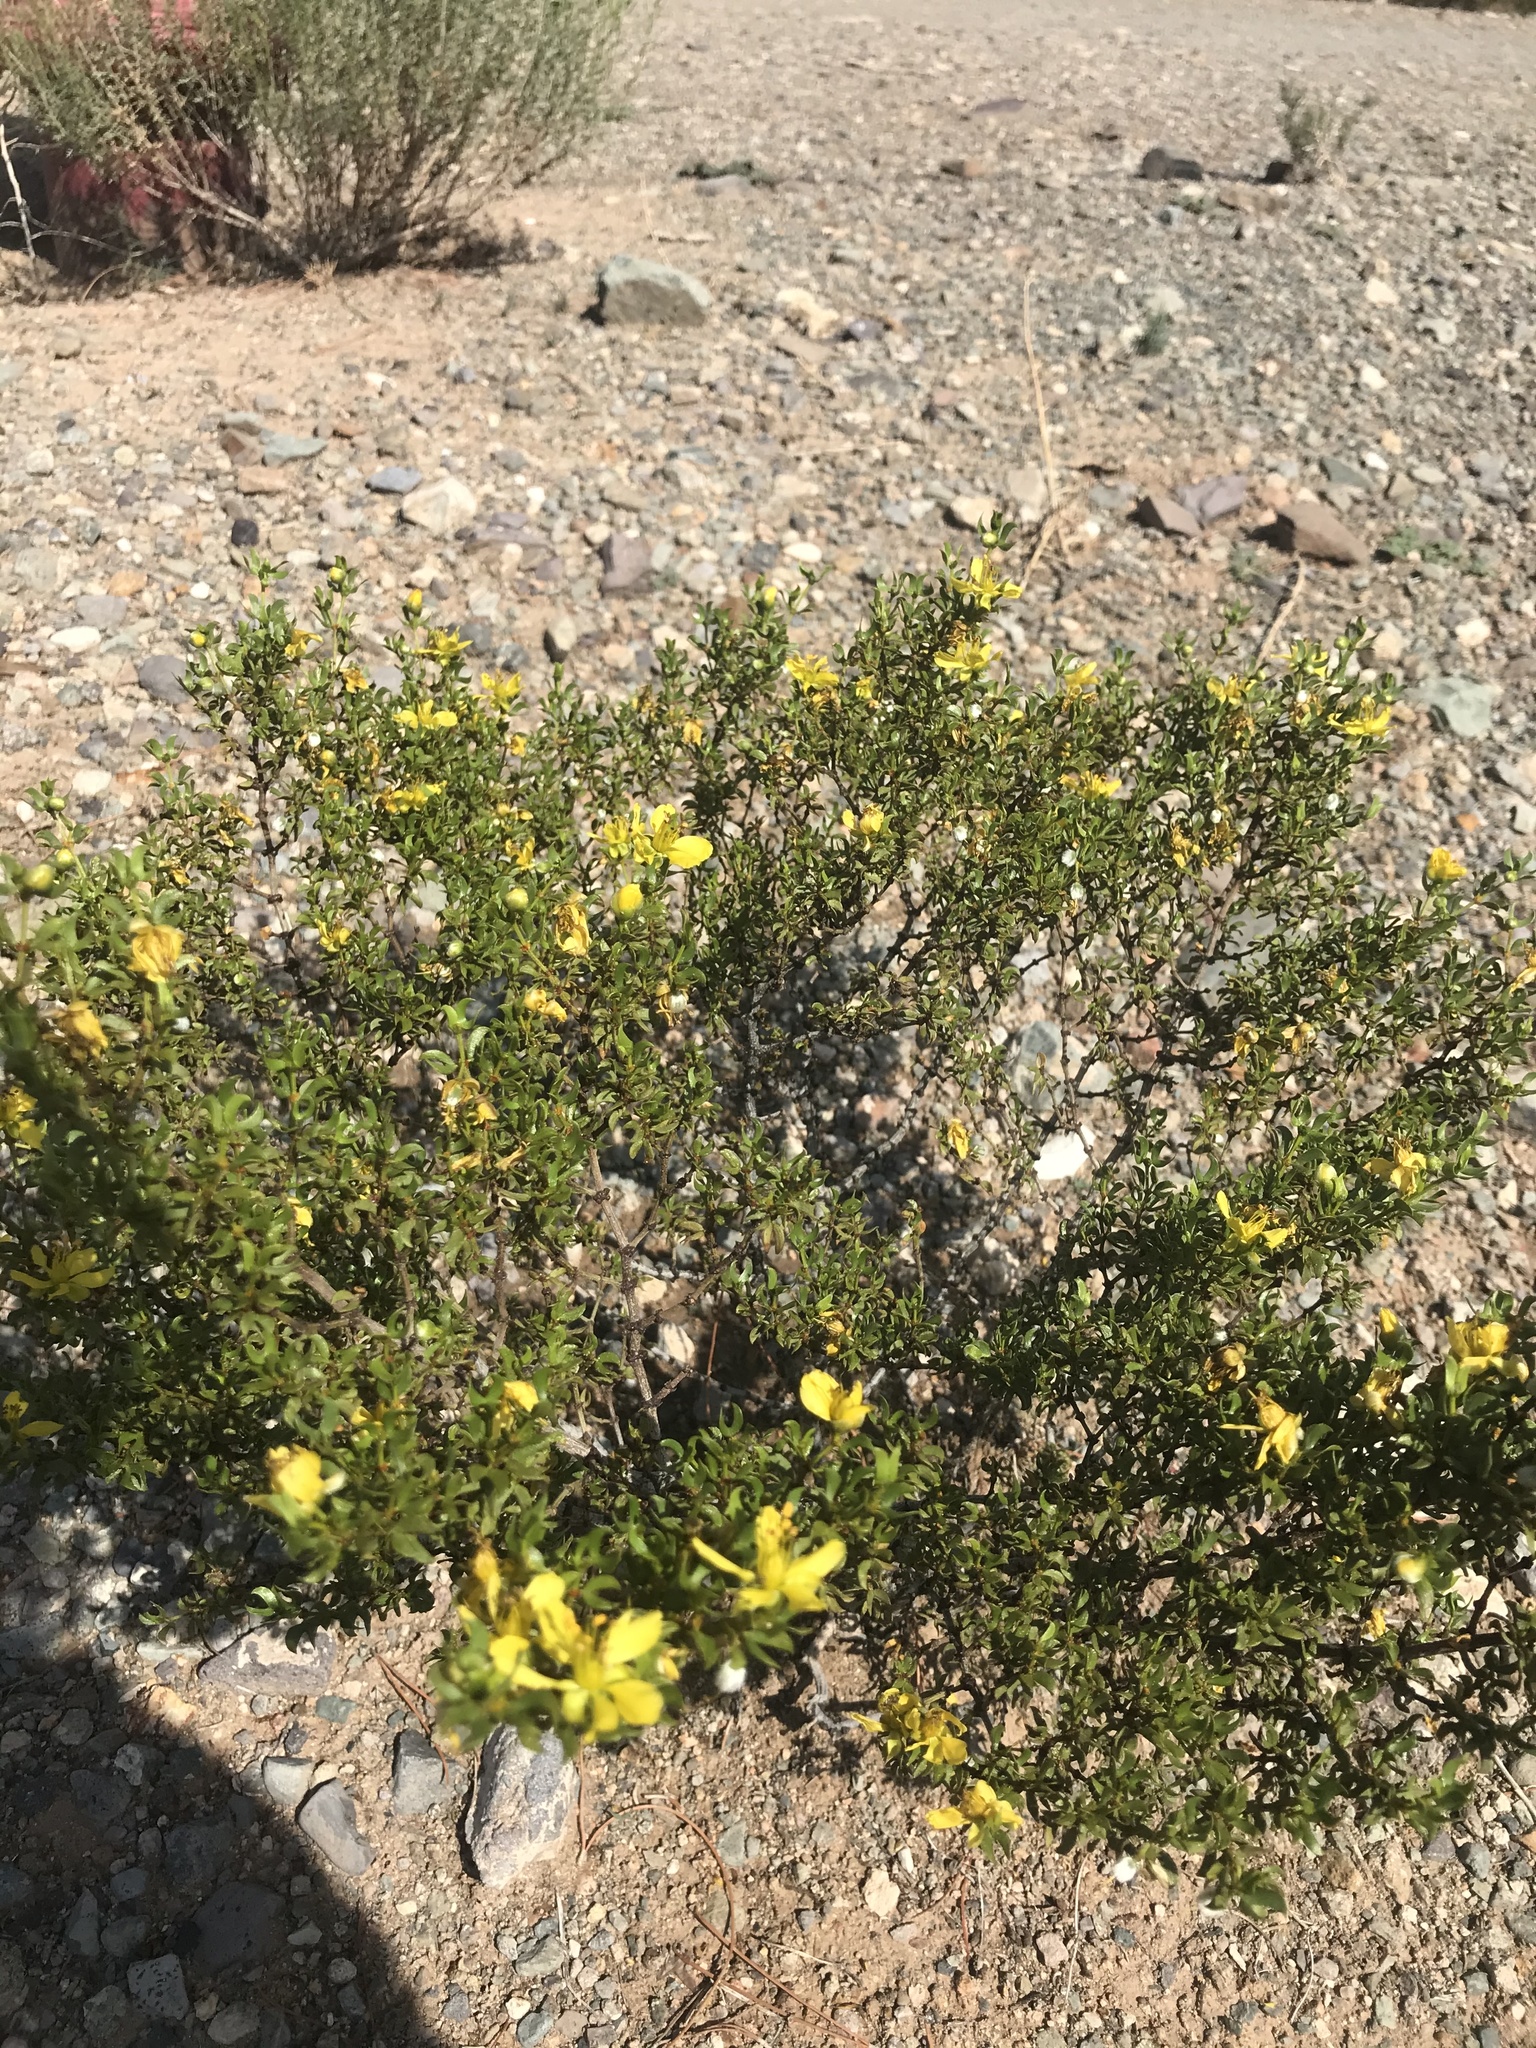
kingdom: Plantae
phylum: Tracheophyta
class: Magnoliopsida
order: Zygophyllales
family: Zygophyllaceae
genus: Larrea
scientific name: Larrea tridentata
